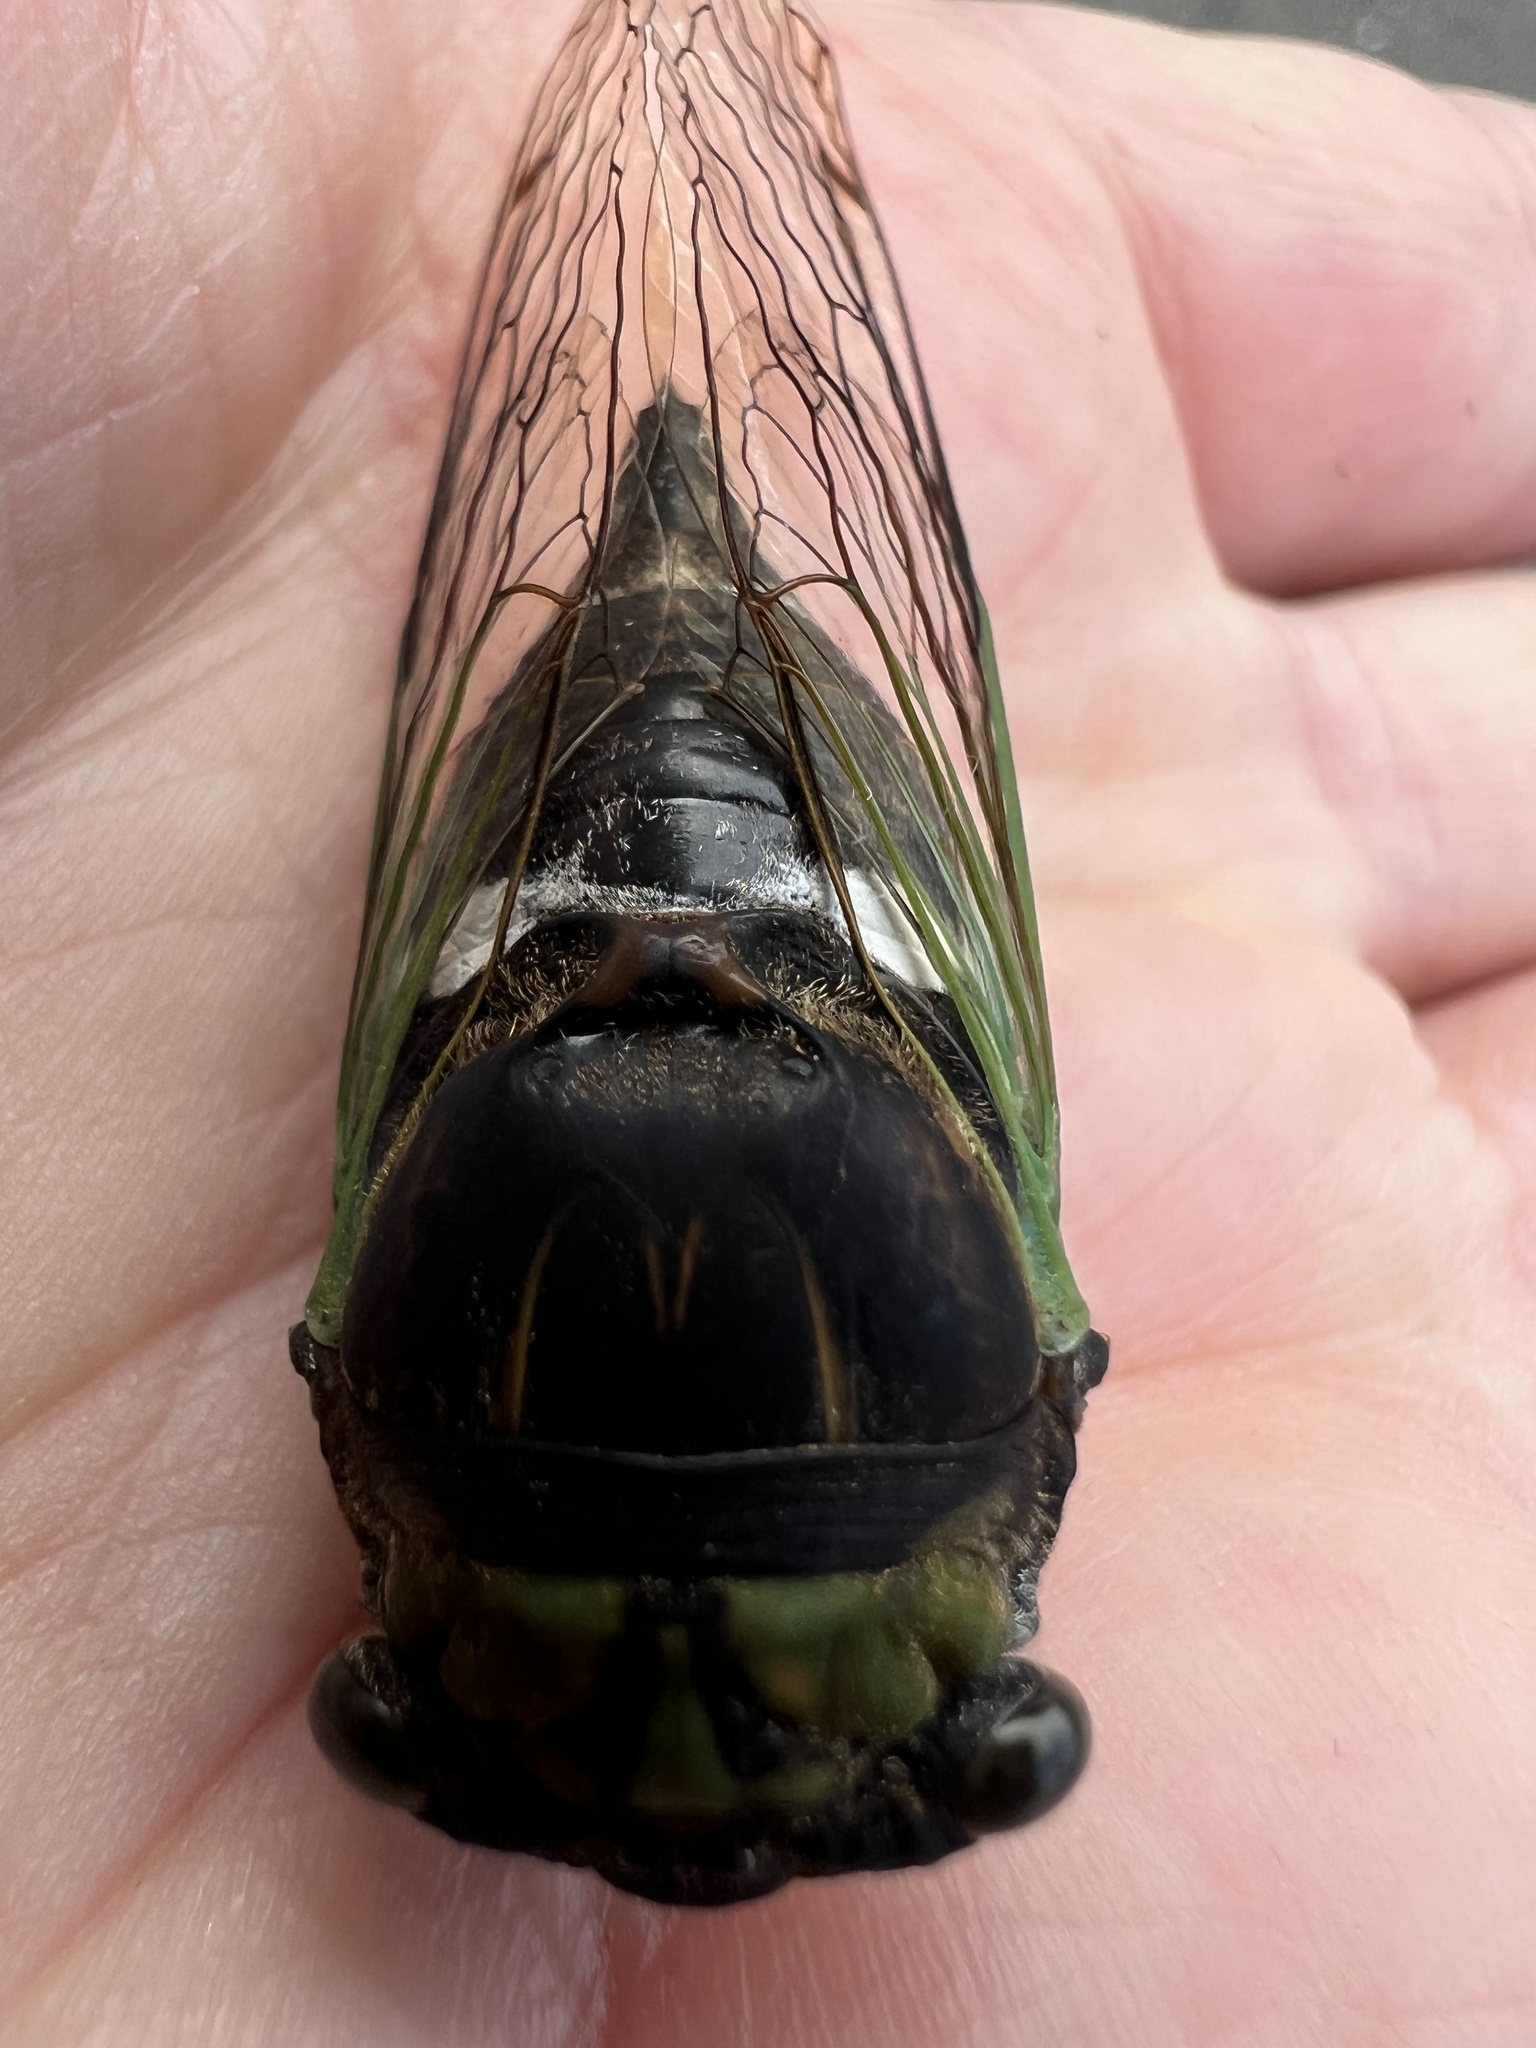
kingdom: Animalia
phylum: Arthropoda
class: Insecta
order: Hemiptera
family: Cicadidae
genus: Neotibicen
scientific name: Neotibicen tibicen
